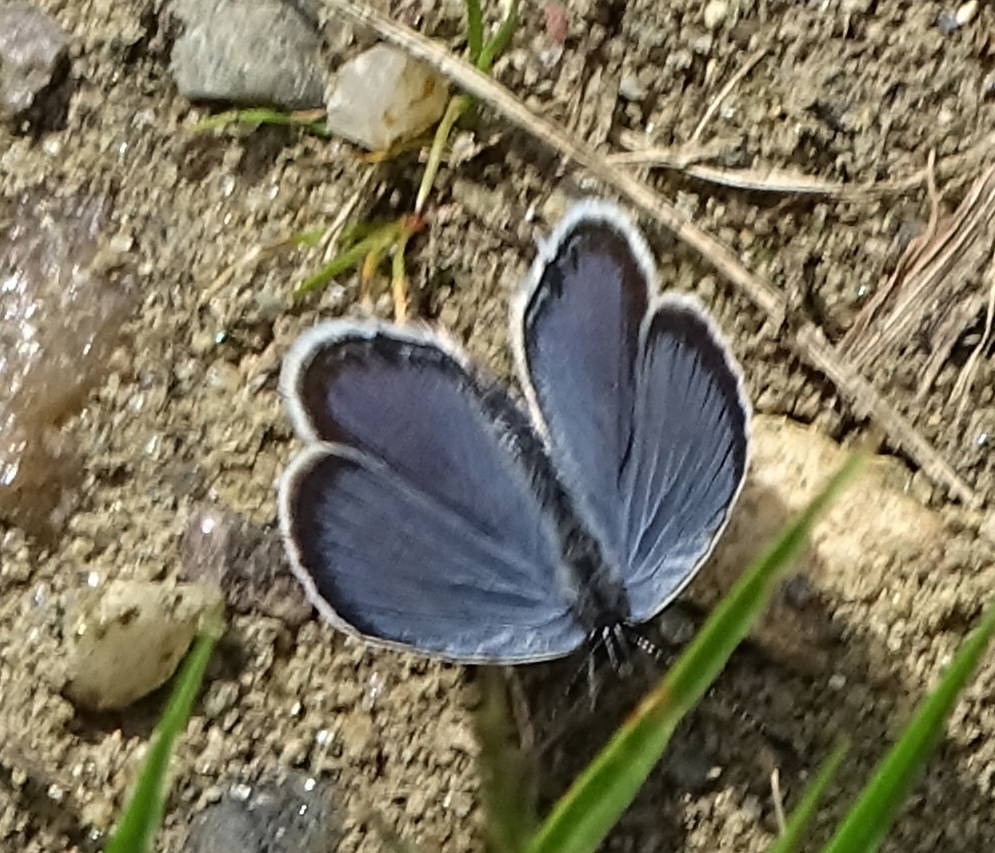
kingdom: Animalia
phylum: Arthropoda
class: Insecta
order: Lepidoptera
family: Lycaenidae
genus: Elkalyce
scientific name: Elkalyce comyntas
